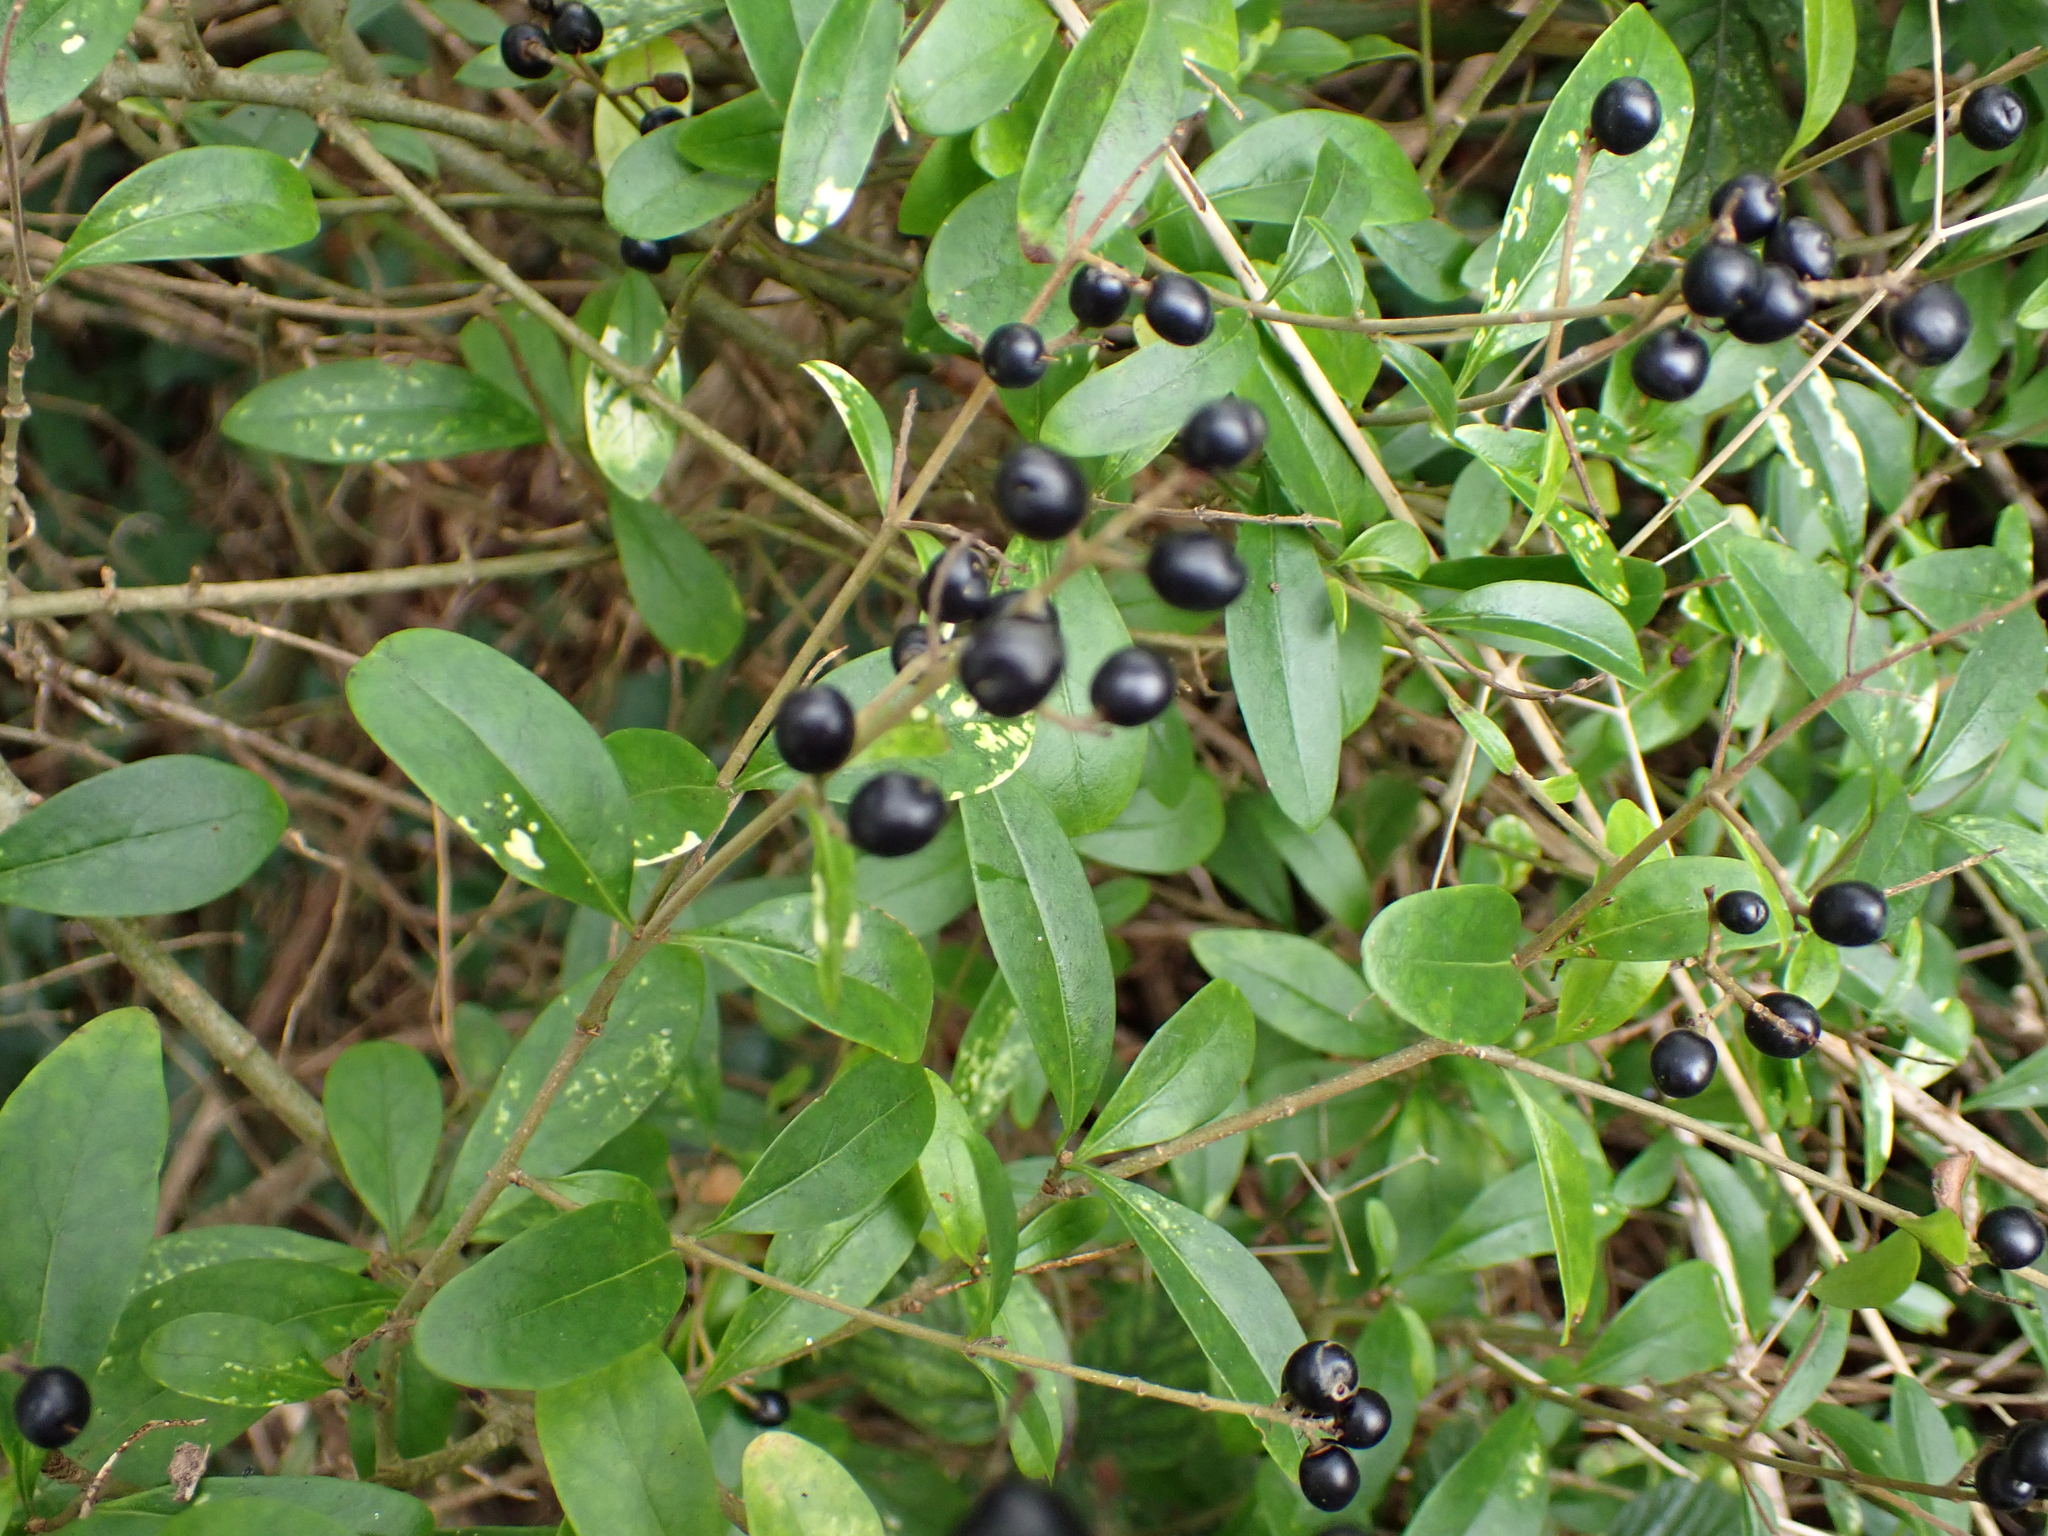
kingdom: Plantae
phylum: Tracheophyta
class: Magnoliopsida
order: Lamiales
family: Oleaceae
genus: Ligustrum
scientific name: Ligustrum vulgare
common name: Wild privet
